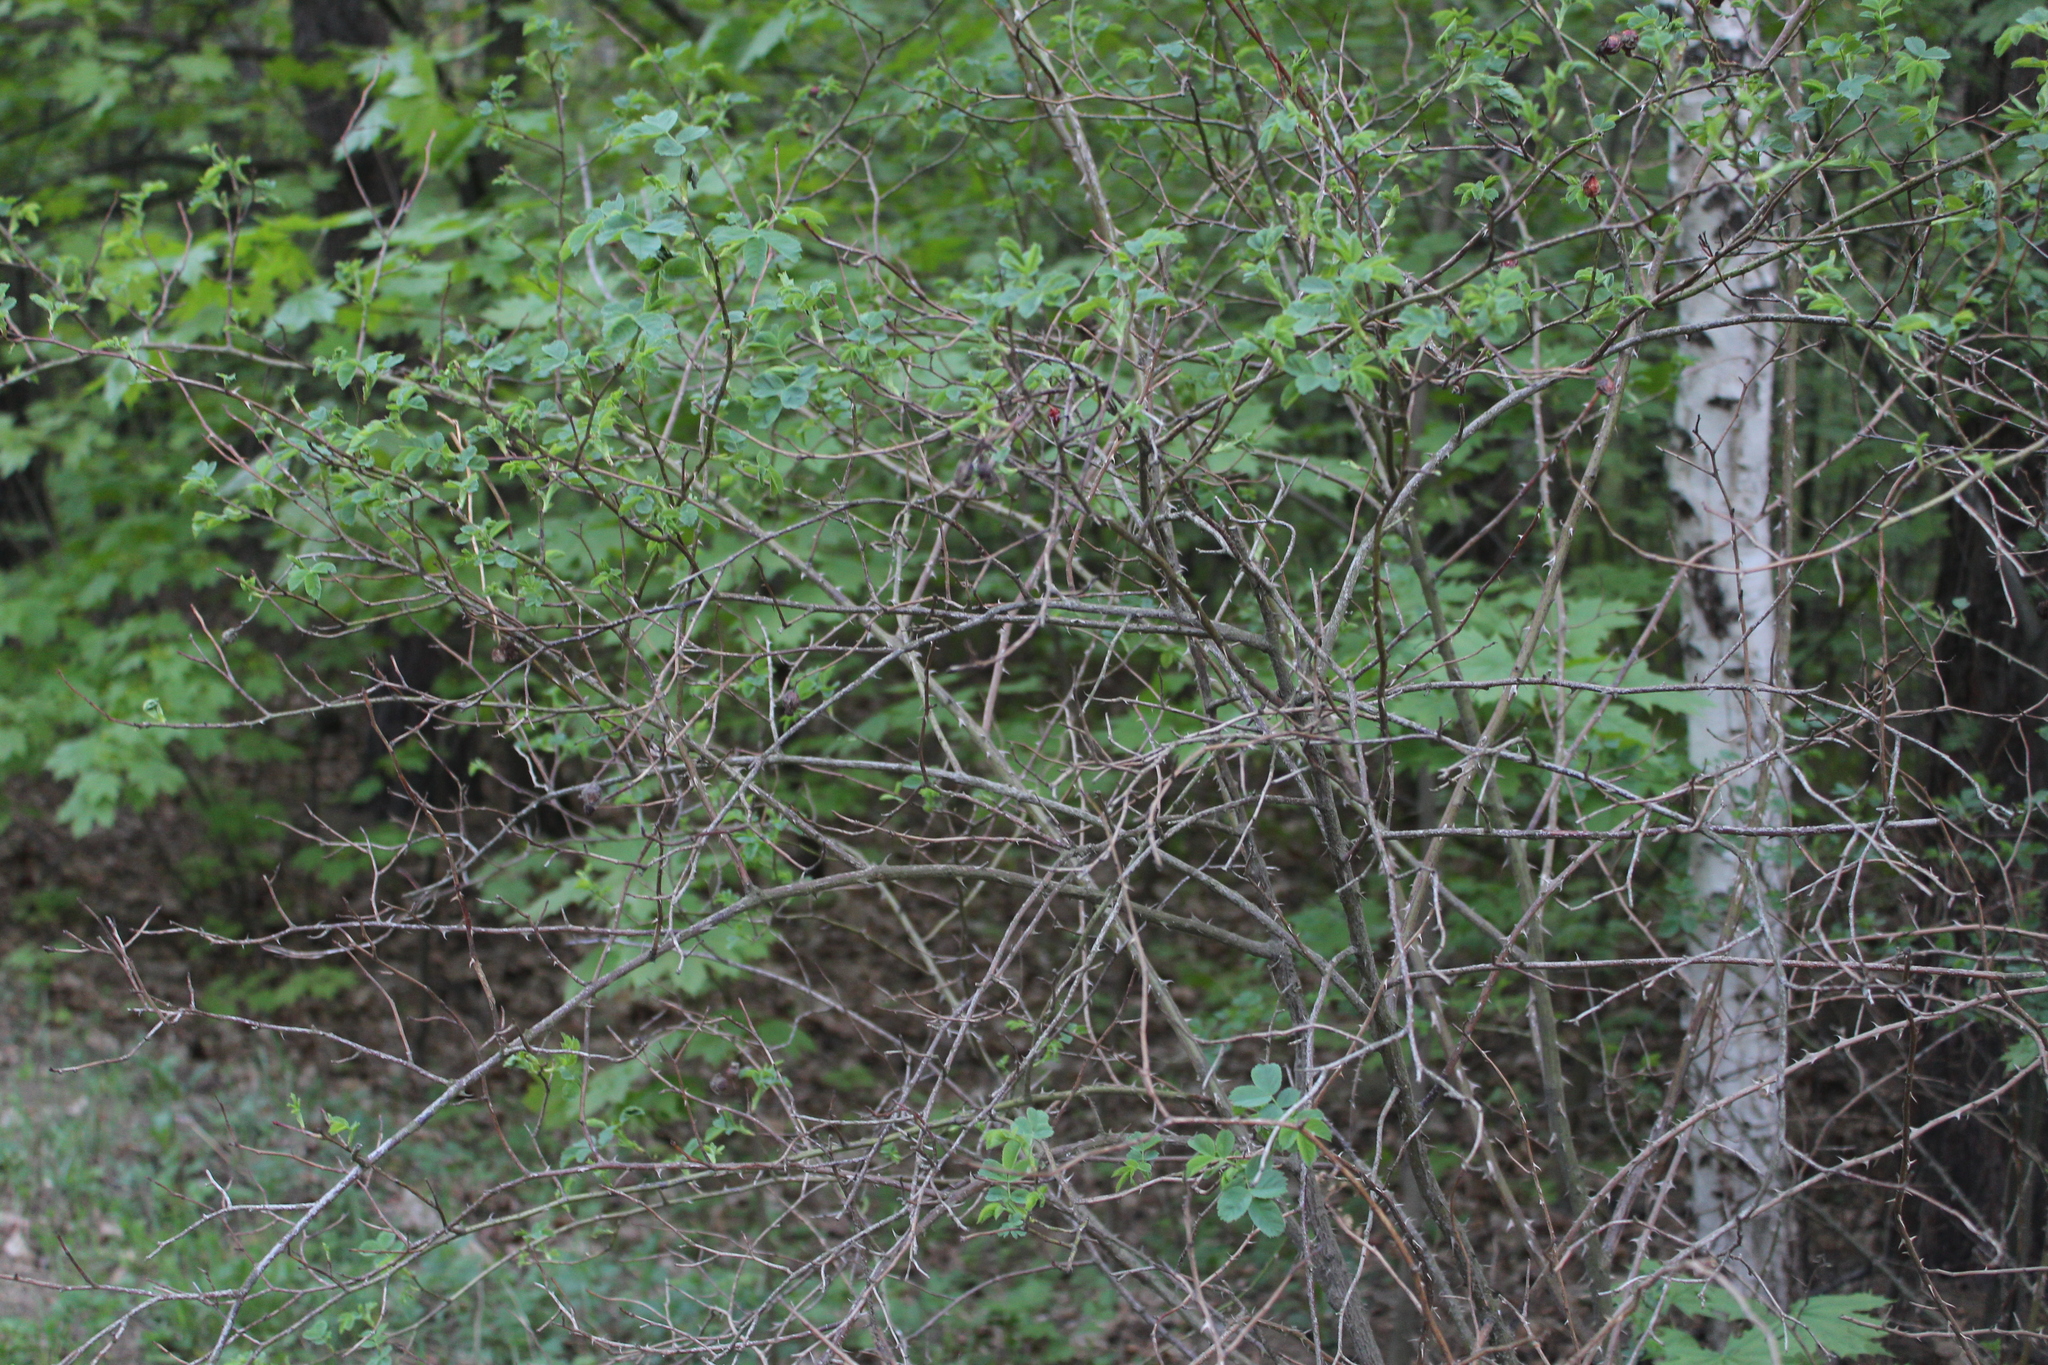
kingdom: Plantae
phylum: Tracheophyta
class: Magnoliopsida
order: Rosales
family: Rosaceae
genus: Rosa
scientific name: Rosa
